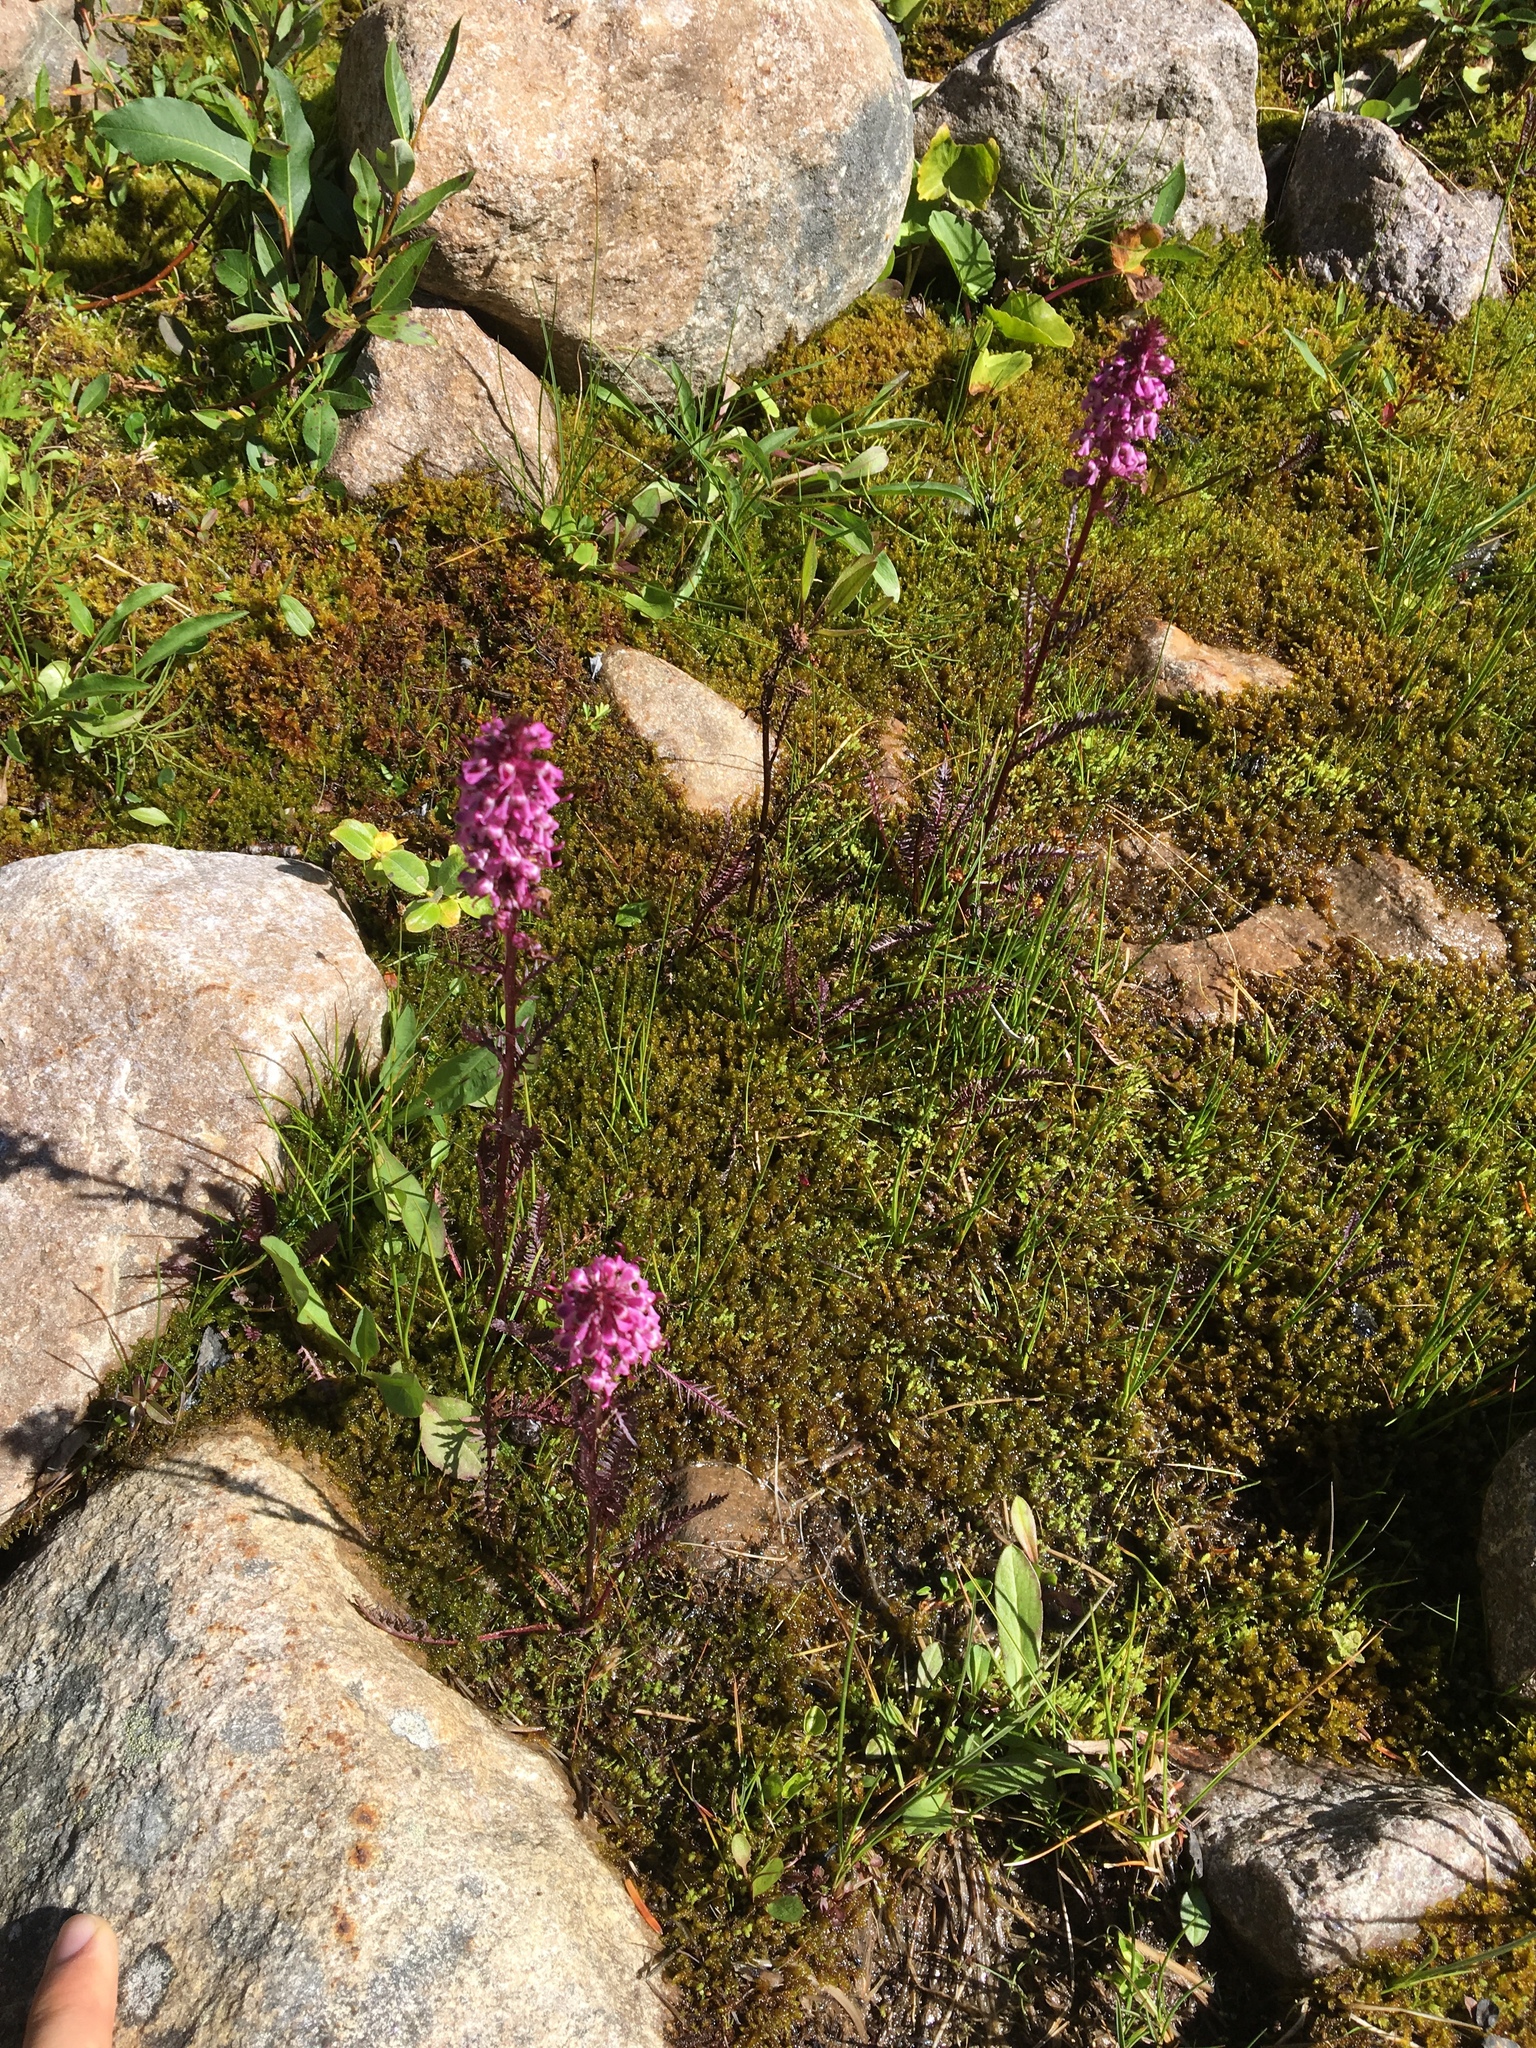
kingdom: Plantae
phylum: Tracheophyta
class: Magnoliopsida
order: Lamiales
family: Orobanchaceae
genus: Pedicularis
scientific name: Pedicularis groenlandica
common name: Elephant's-head
